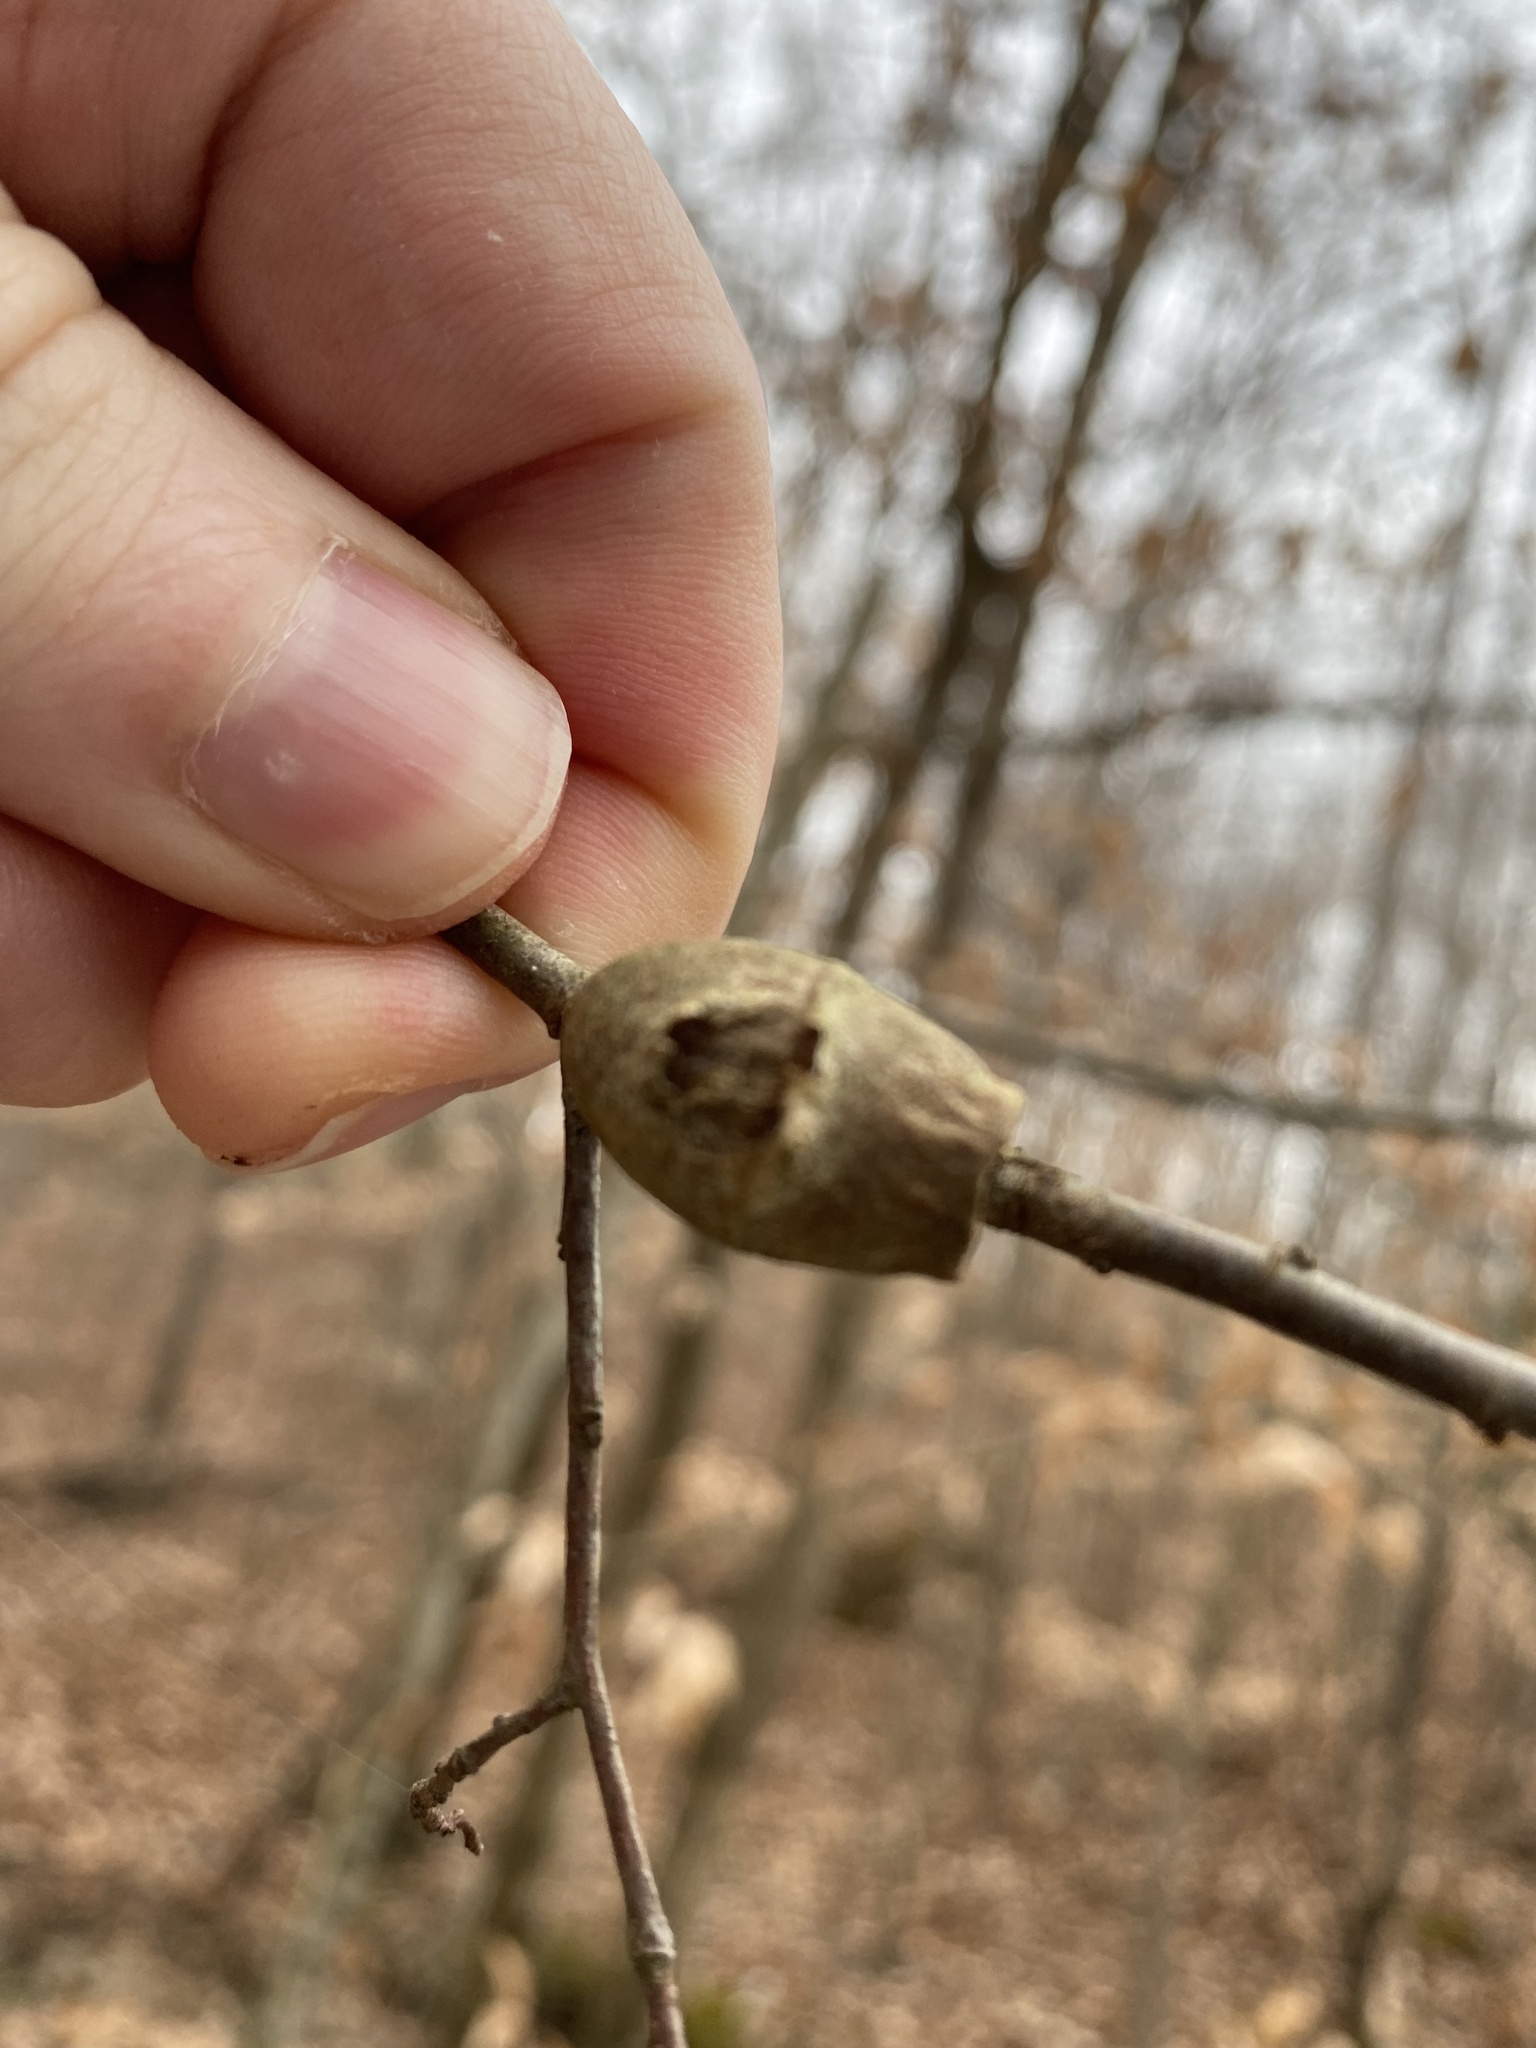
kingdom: Animalia
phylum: Arthropoda
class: Insecta
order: Lepidoptera
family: Megalopygidae
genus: Megalopyge
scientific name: Megalopyge
